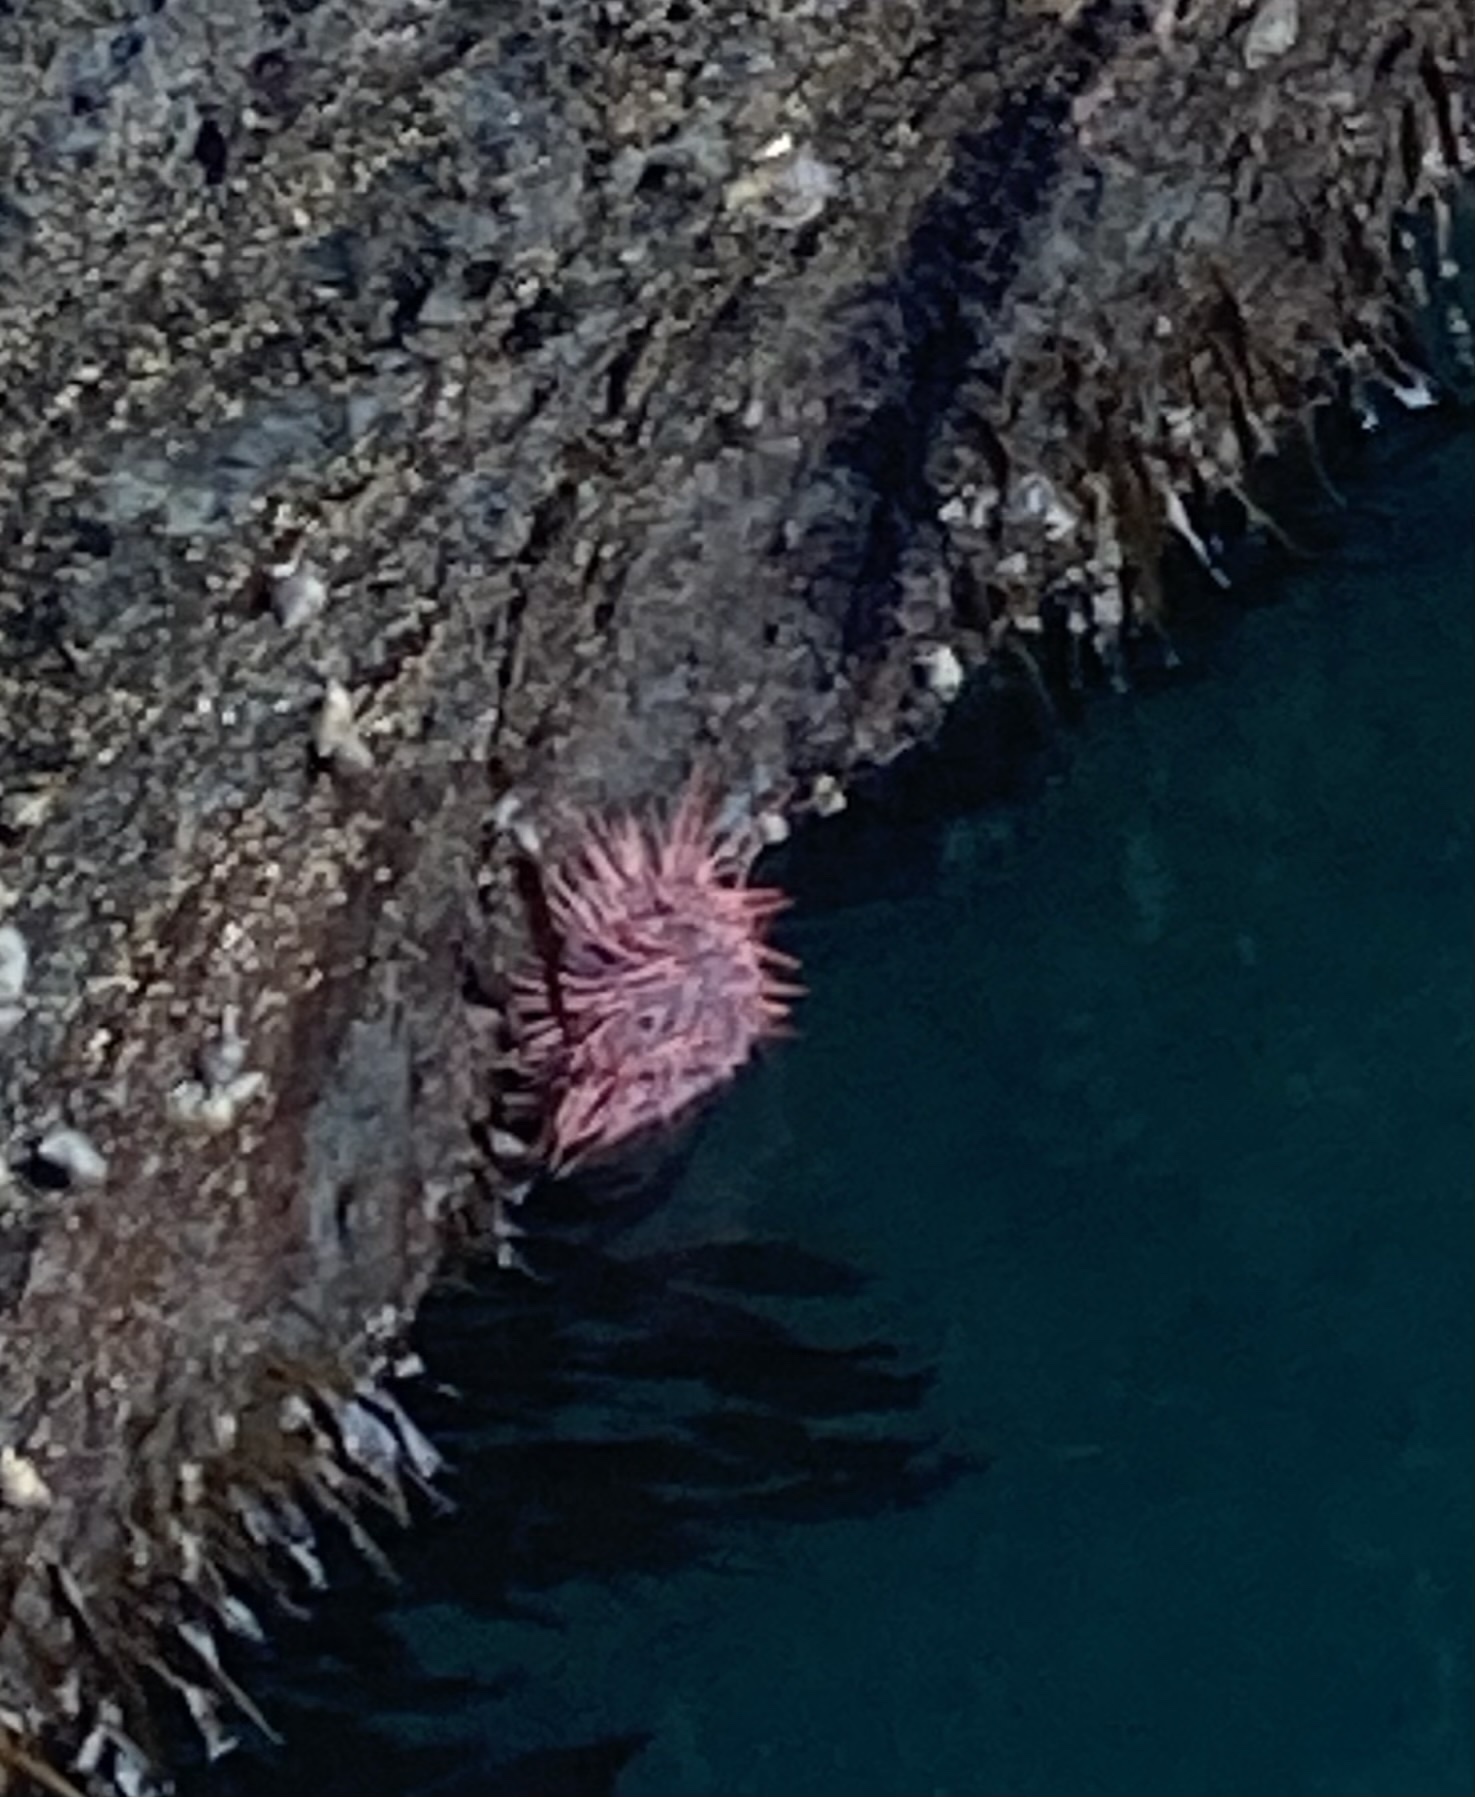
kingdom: Animalia
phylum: Echinodermata
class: Echinoidea
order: Camarodonta
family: Strongylocentrotidae
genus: Mesocentrotus
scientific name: Mesocentrotus franciscanus
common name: Red sea urchin
